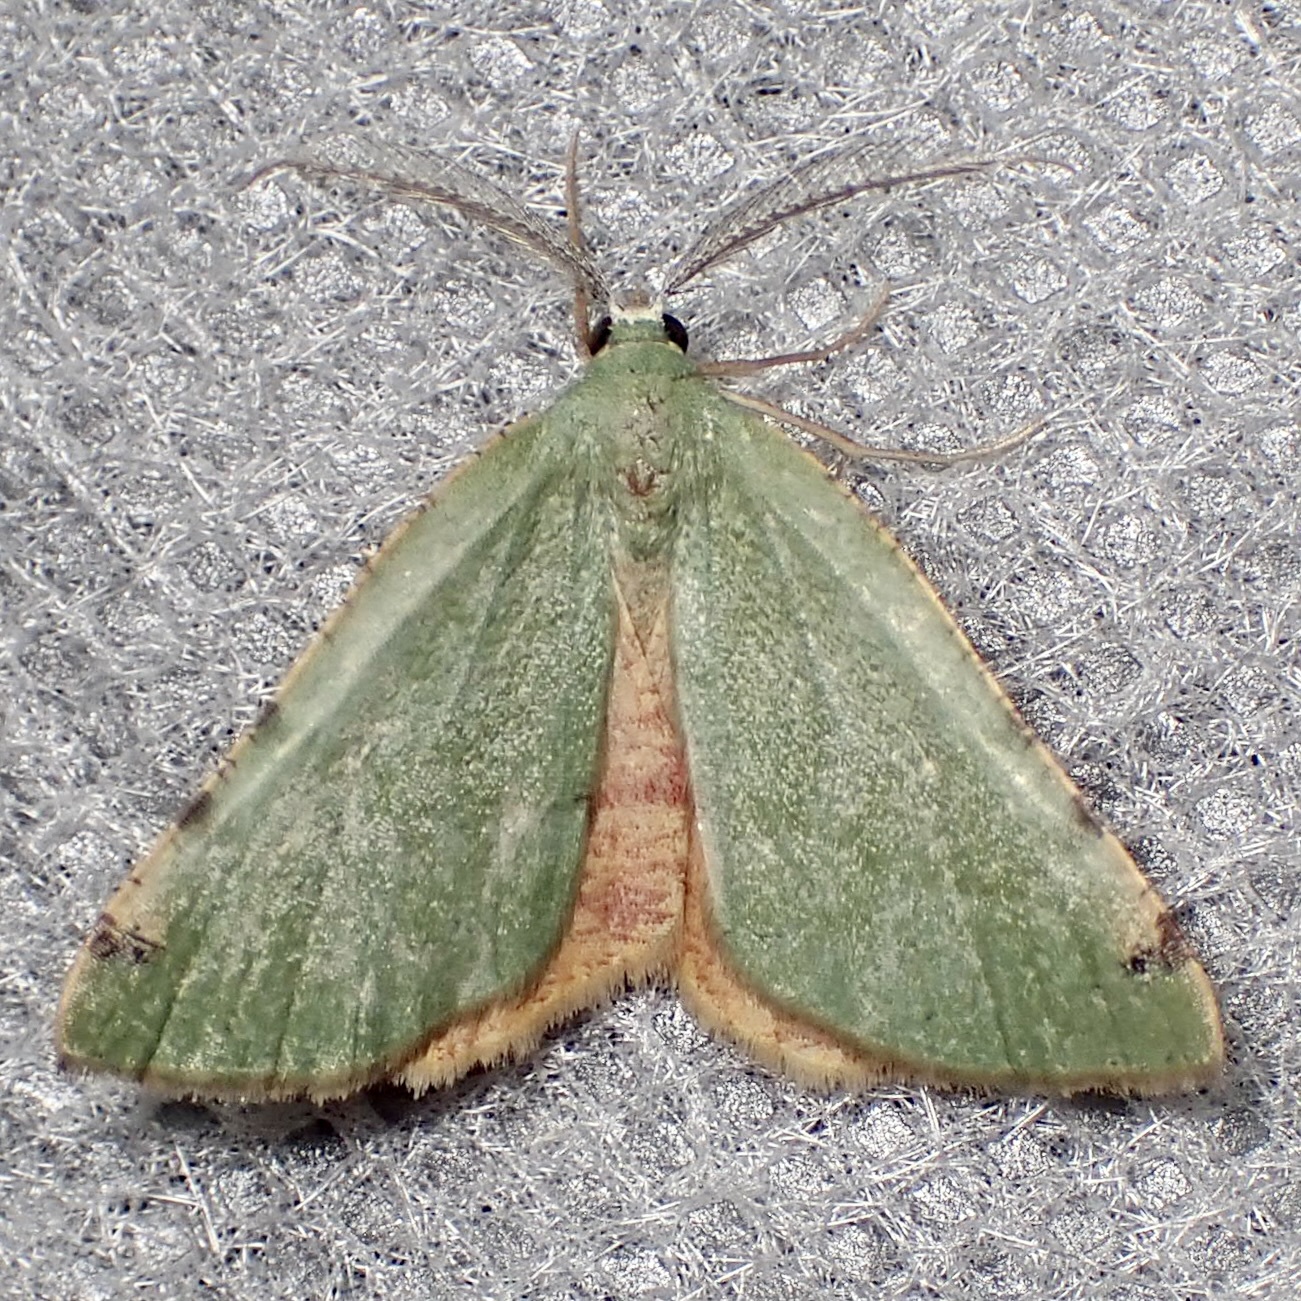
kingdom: Animalia
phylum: Arthropoda
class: Insecta
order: Lepidoptera
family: Geometridae
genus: Chloraspilates
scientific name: Chloraspilates bicoloraria
